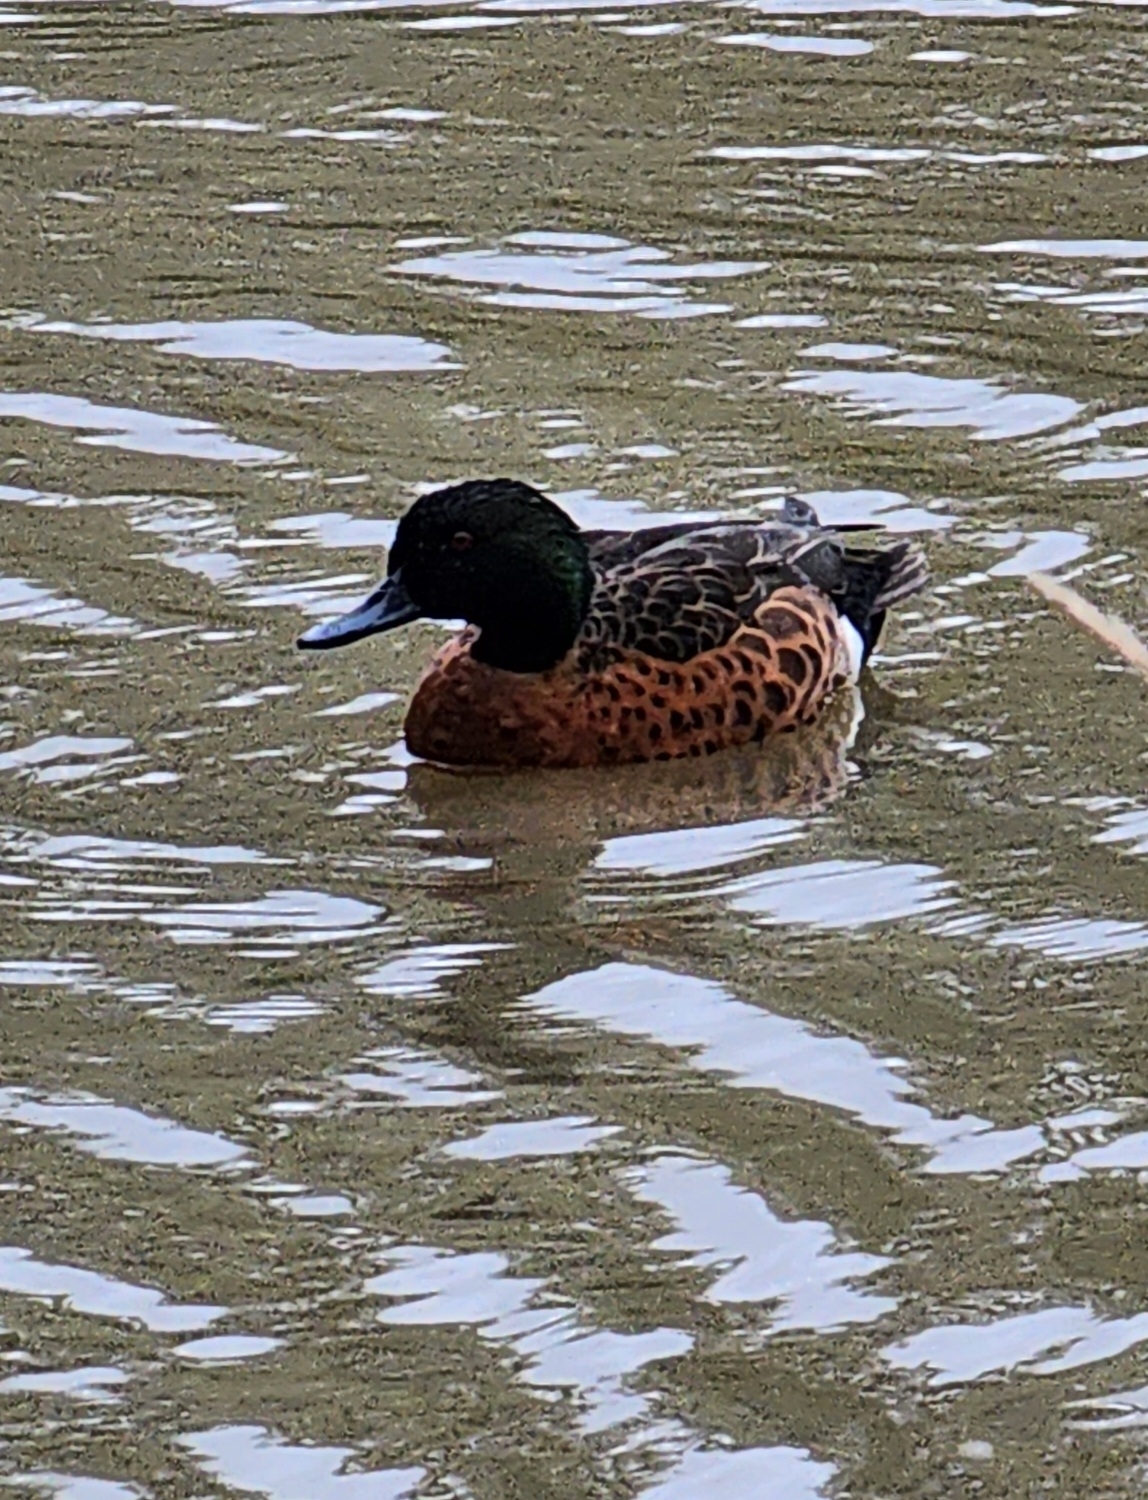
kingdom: Animalia
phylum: Chordata
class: Aves
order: Anseriformes
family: Anatidae
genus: Anas
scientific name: Anas castanea
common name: Chestnut teal
